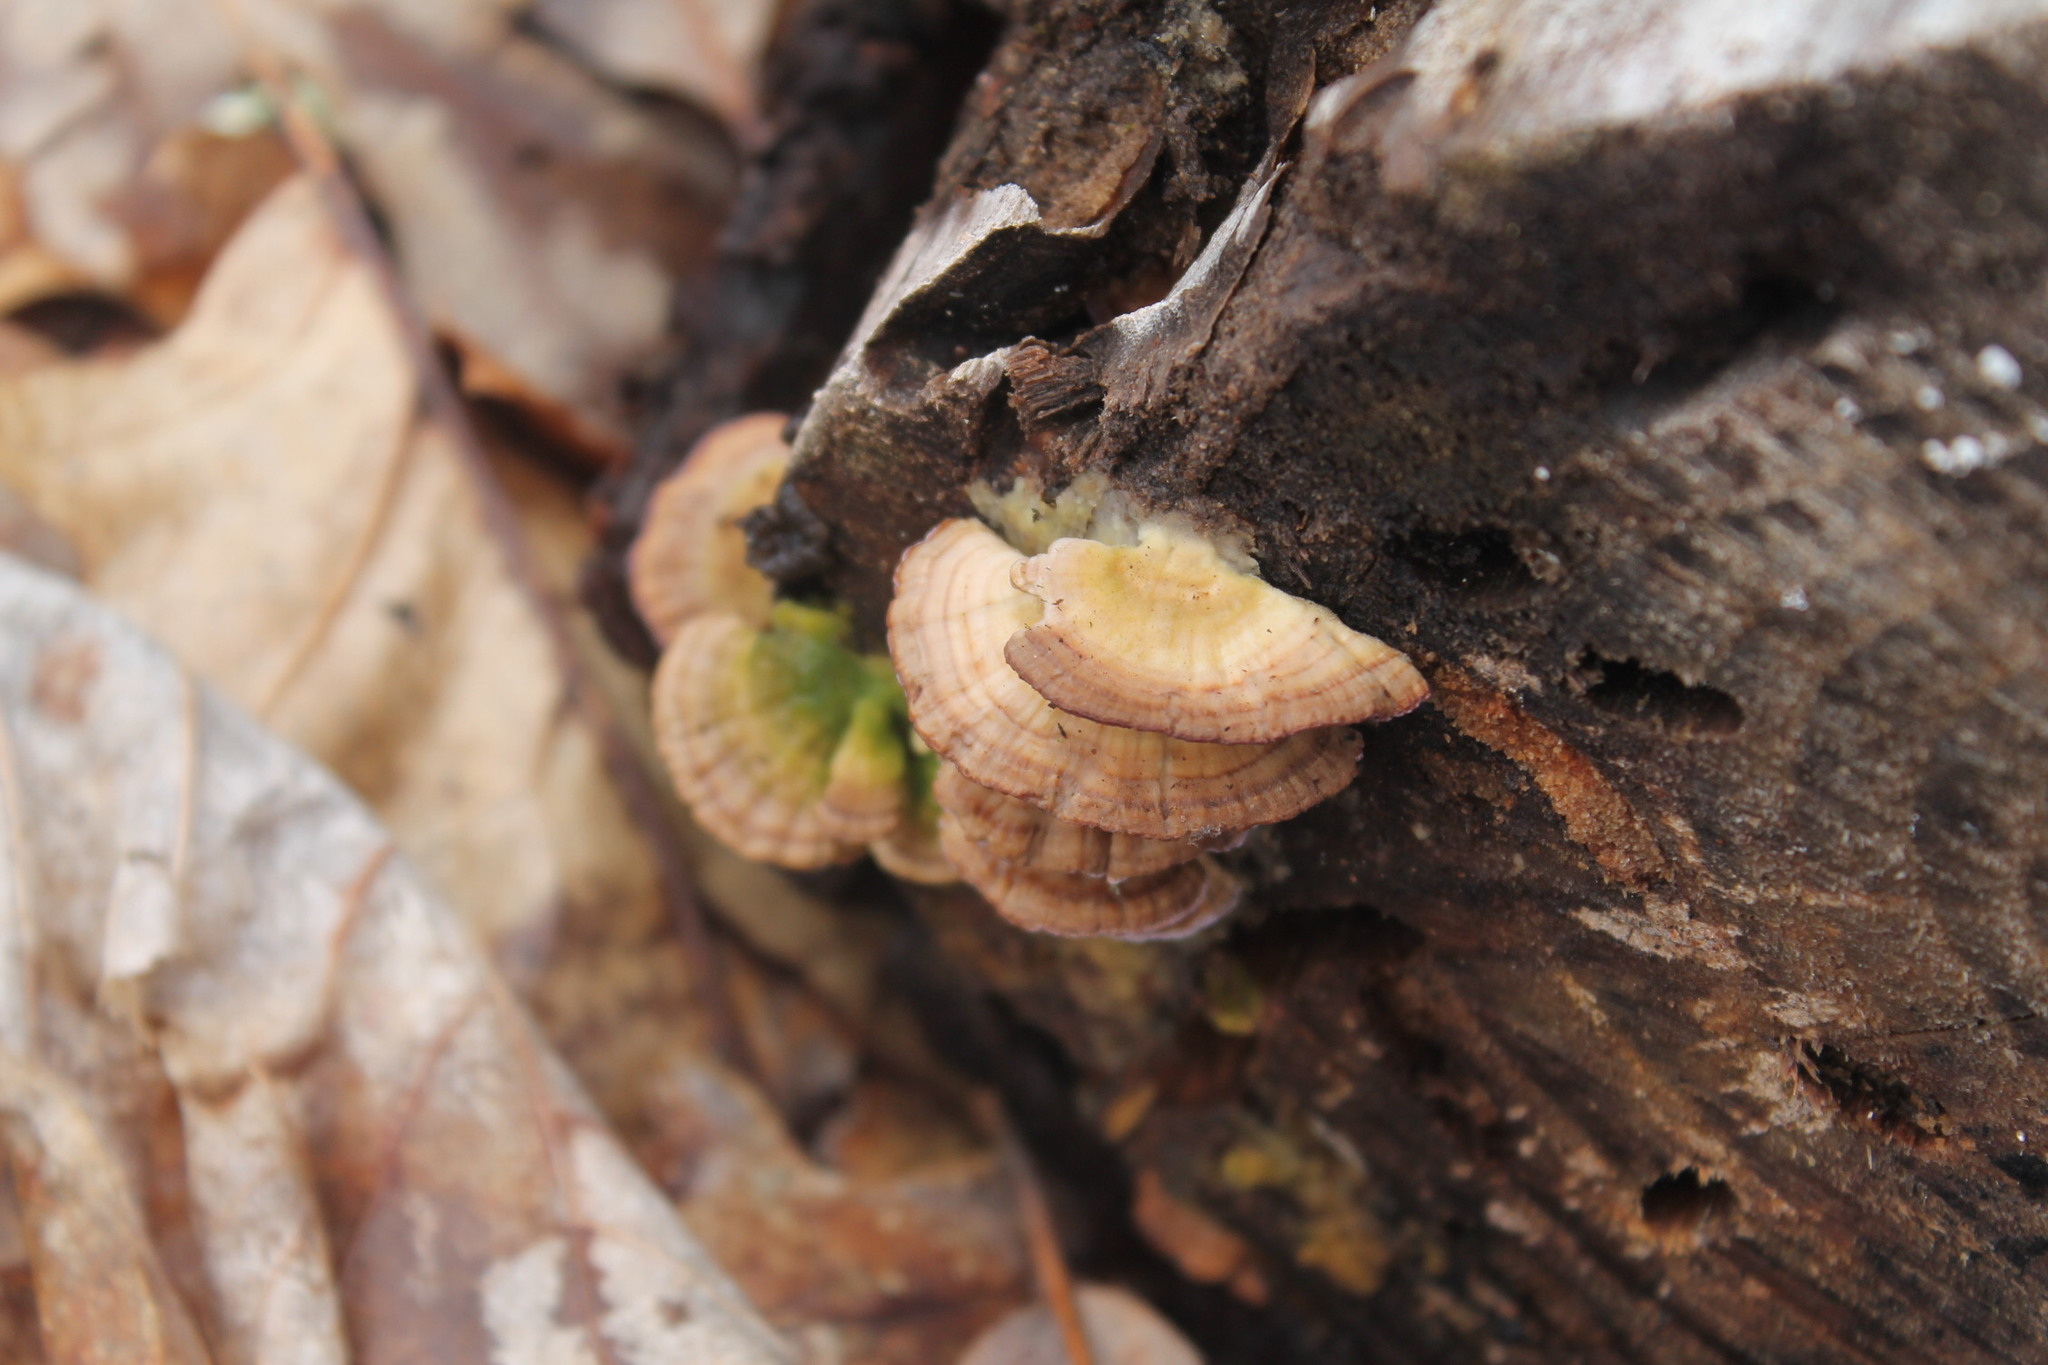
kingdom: Fungi
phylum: Basidiomycota
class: Agaricomycetes
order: Hymenochaetales
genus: Trichaptum
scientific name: Trichaptum biforme
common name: Violet-toothed polypore
